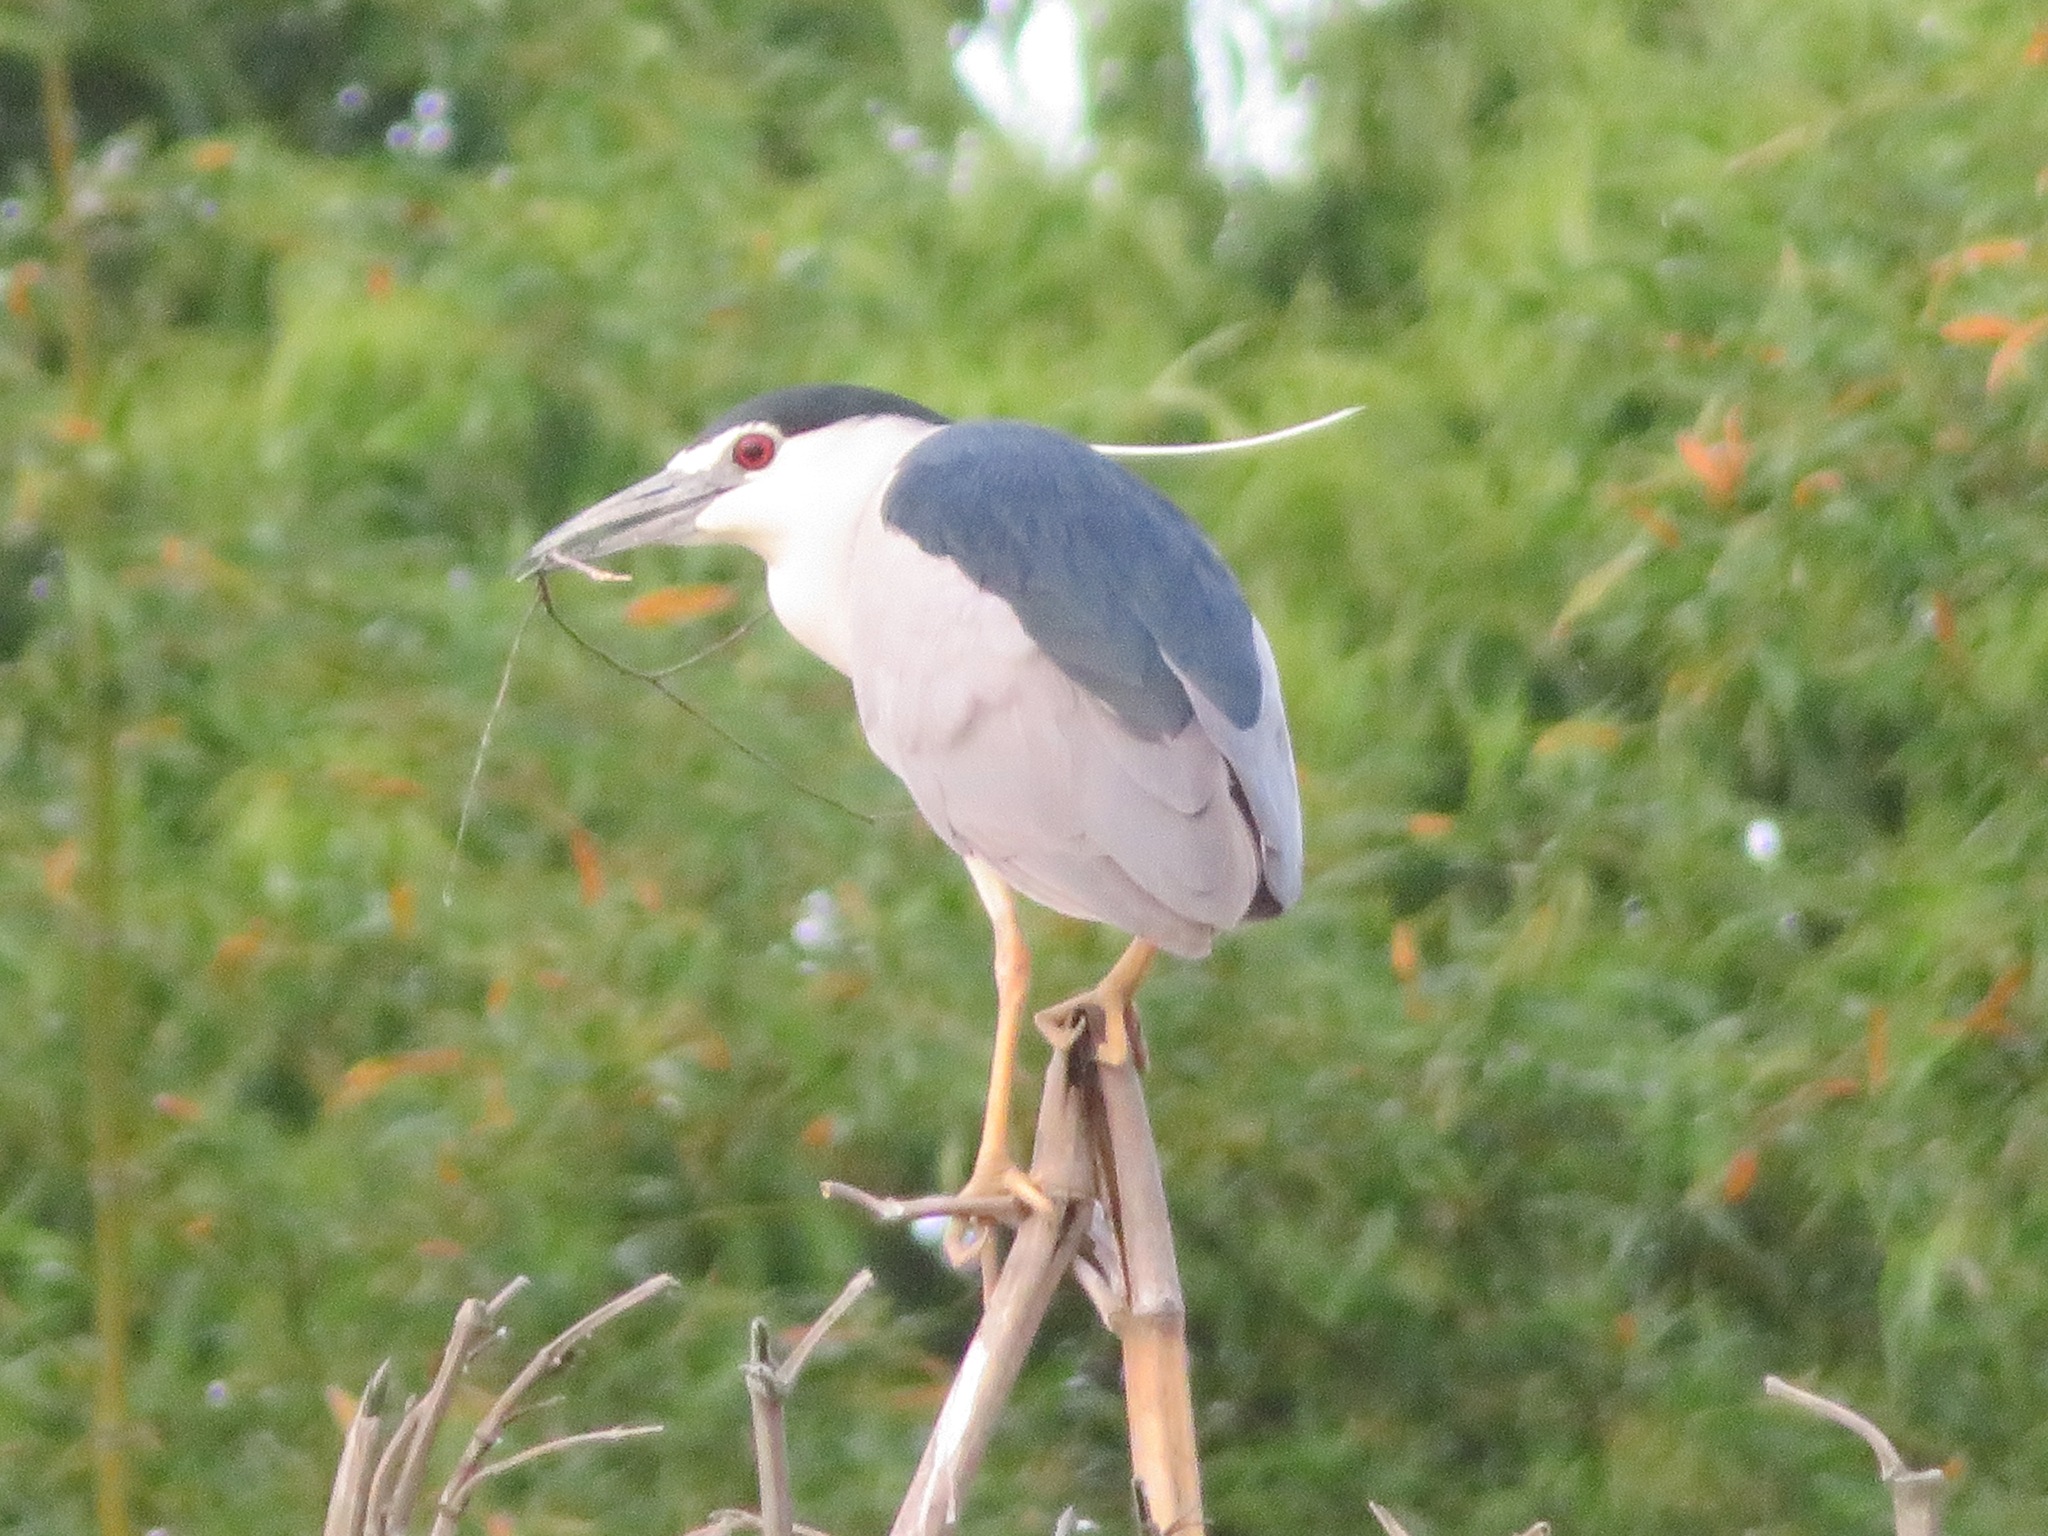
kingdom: Animalia
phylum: Chordata
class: Aves
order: Pelecaniformes
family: Ardeidae
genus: Nycticorax
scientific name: Nycticorax nycticorax
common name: Black-crowned night heron
